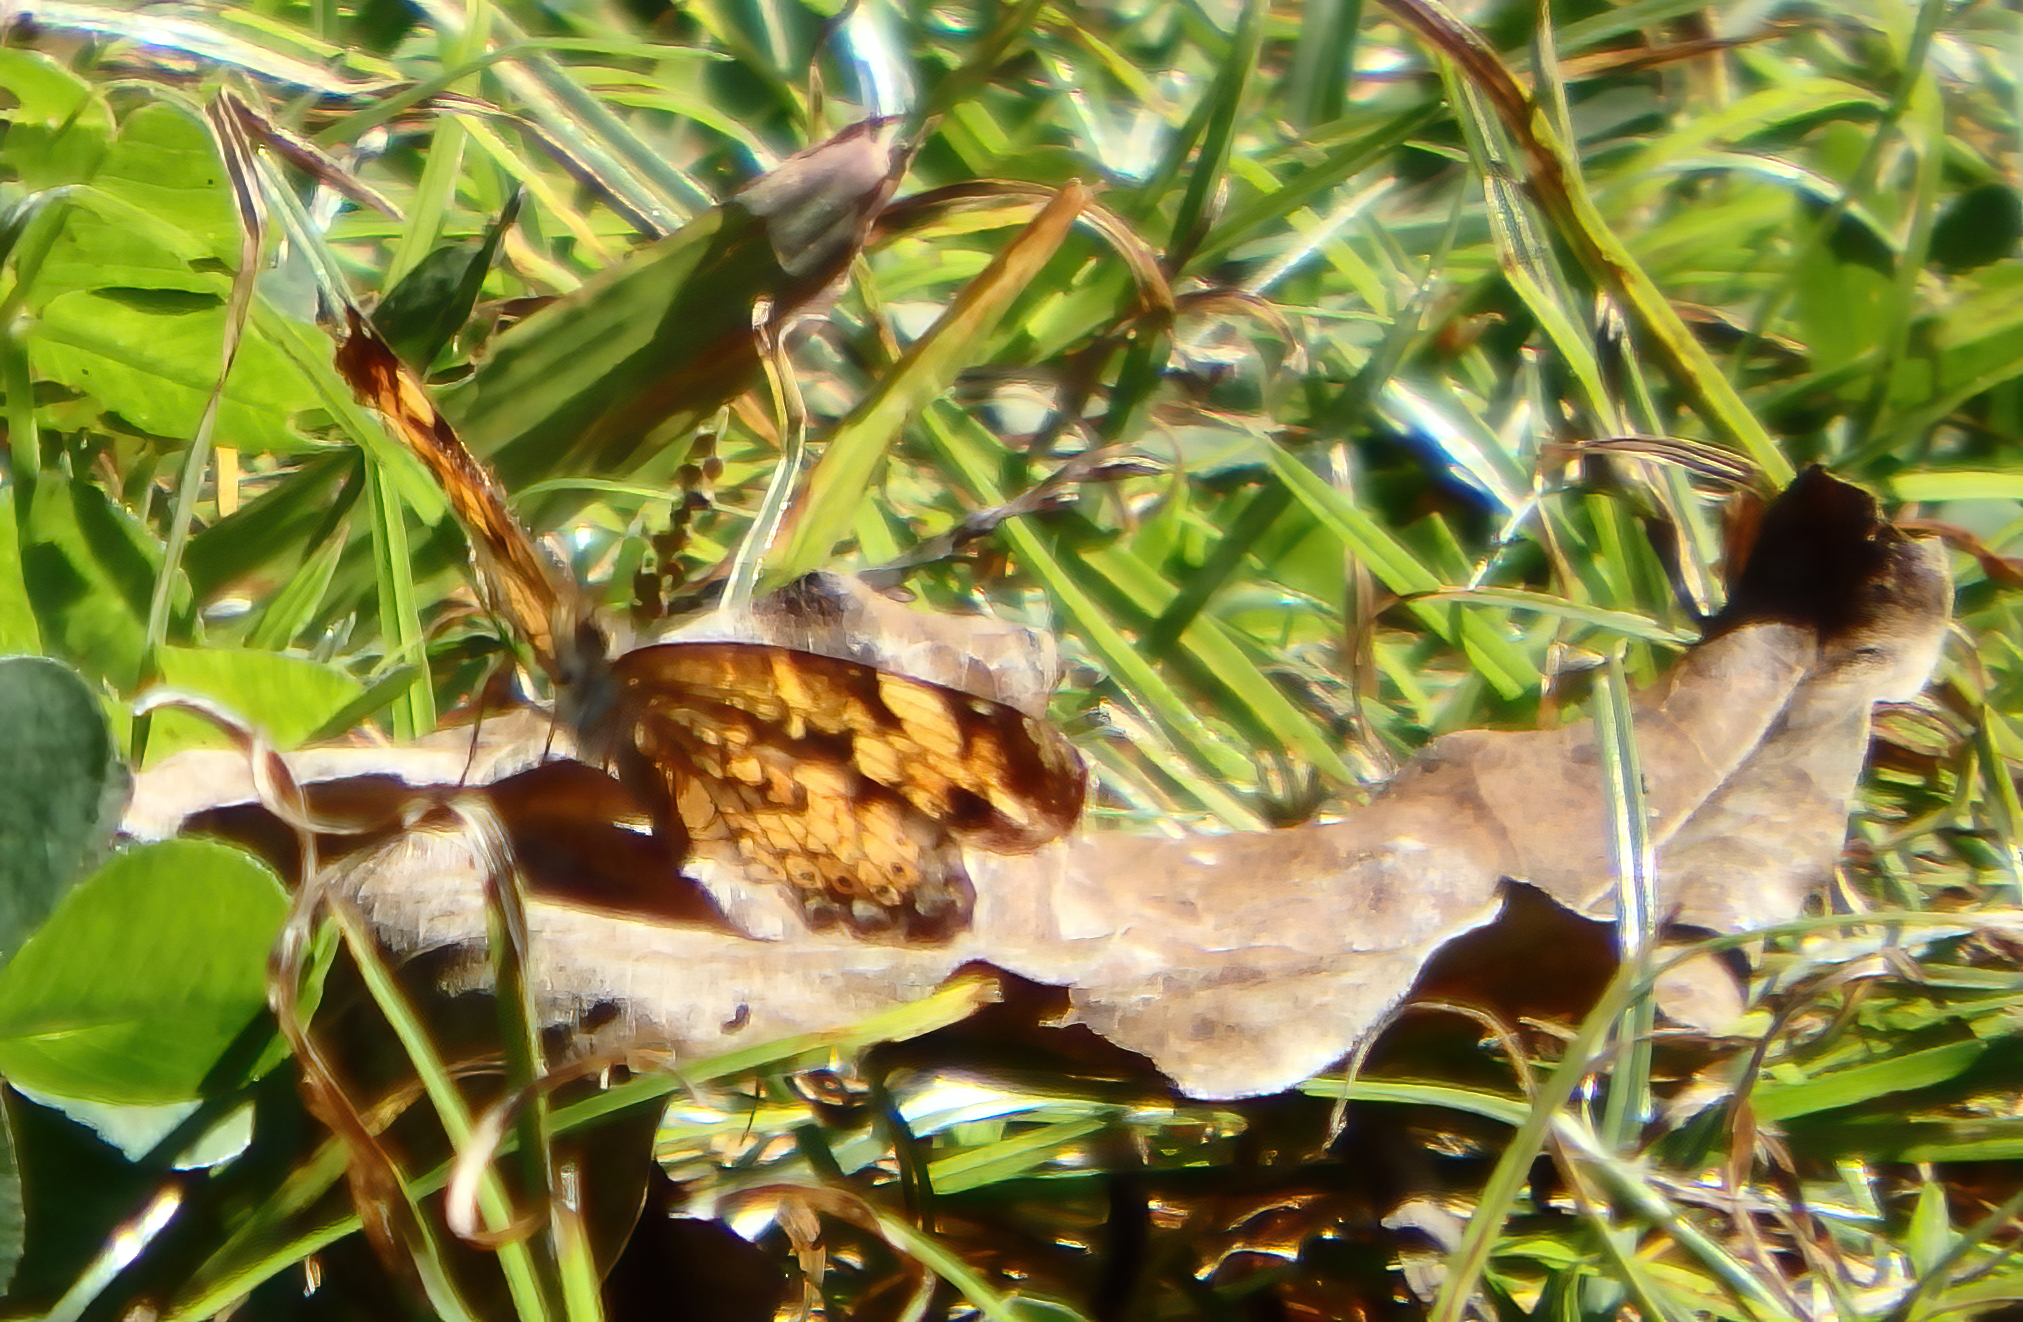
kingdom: Animalia
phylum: Arthropoda
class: Insecta
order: Lepidoptera
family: Nymphalidae
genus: Phyciodes
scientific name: Phyciodes tharos
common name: Pearl crescent
